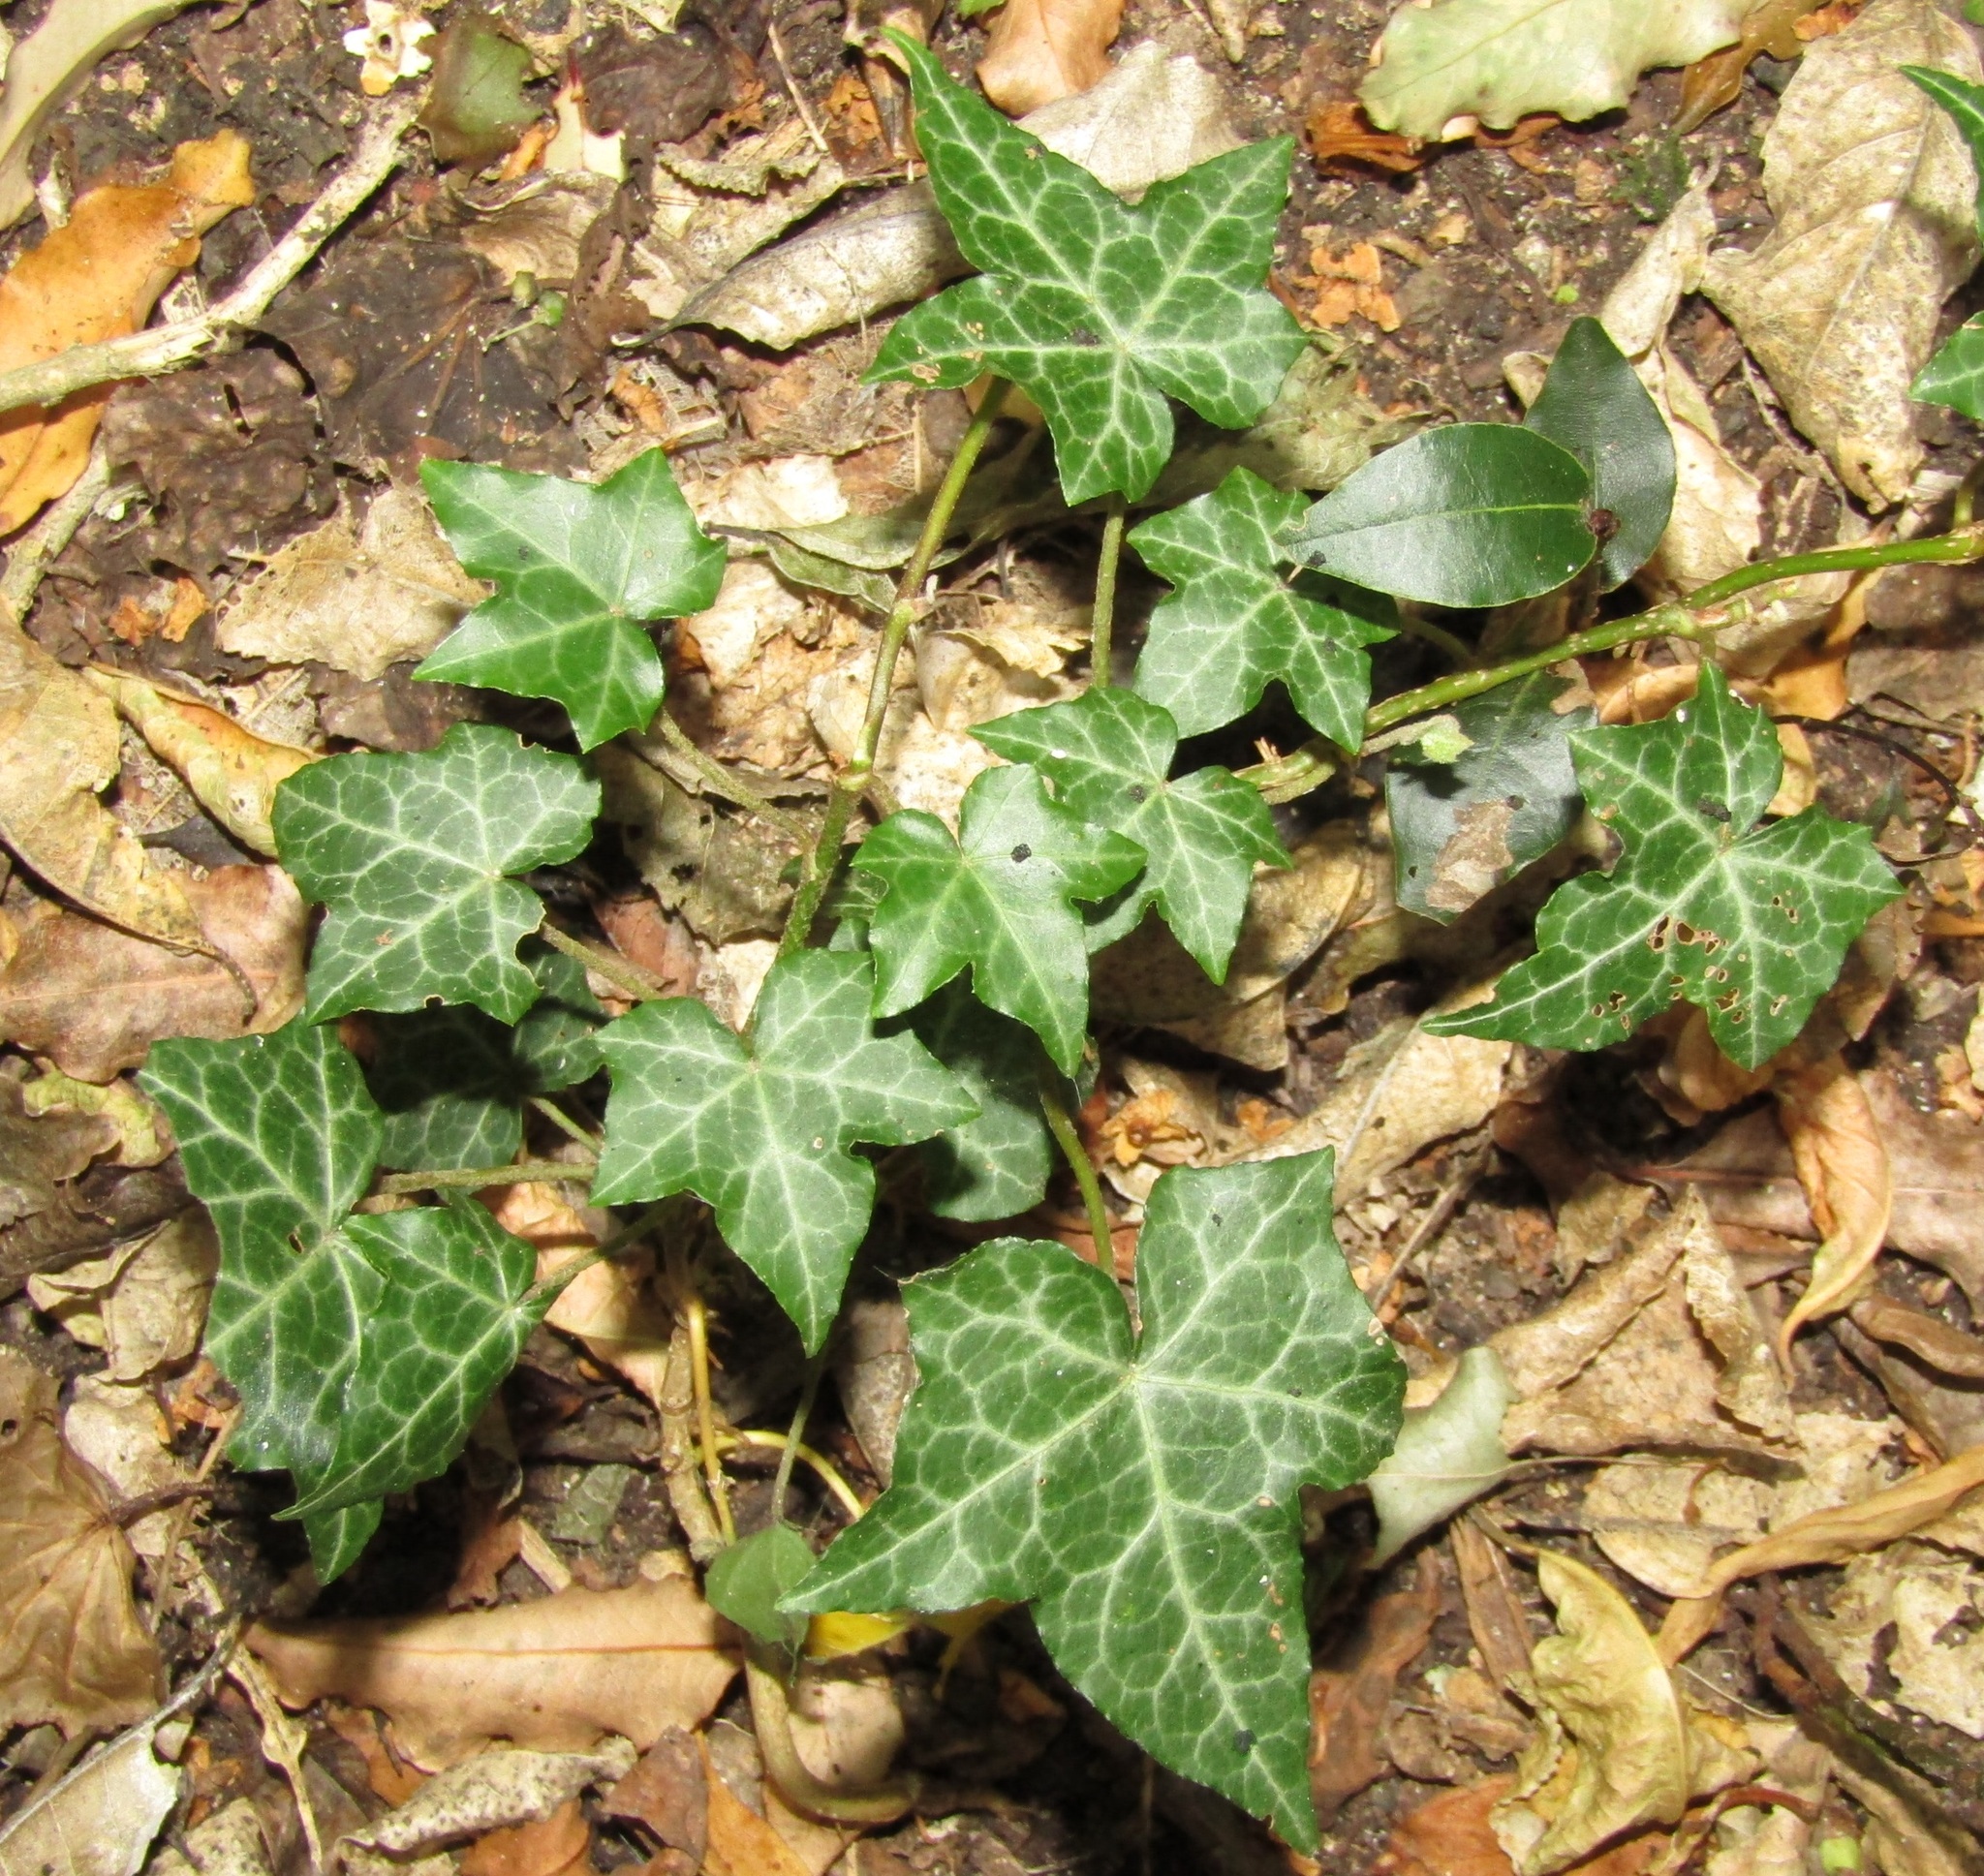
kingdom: Plantae
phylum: Tracheophyta
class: Magnoliopsida
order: Apiales
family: Araliaceae
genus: Hedera
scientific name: Hedera helix
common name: Ivy
